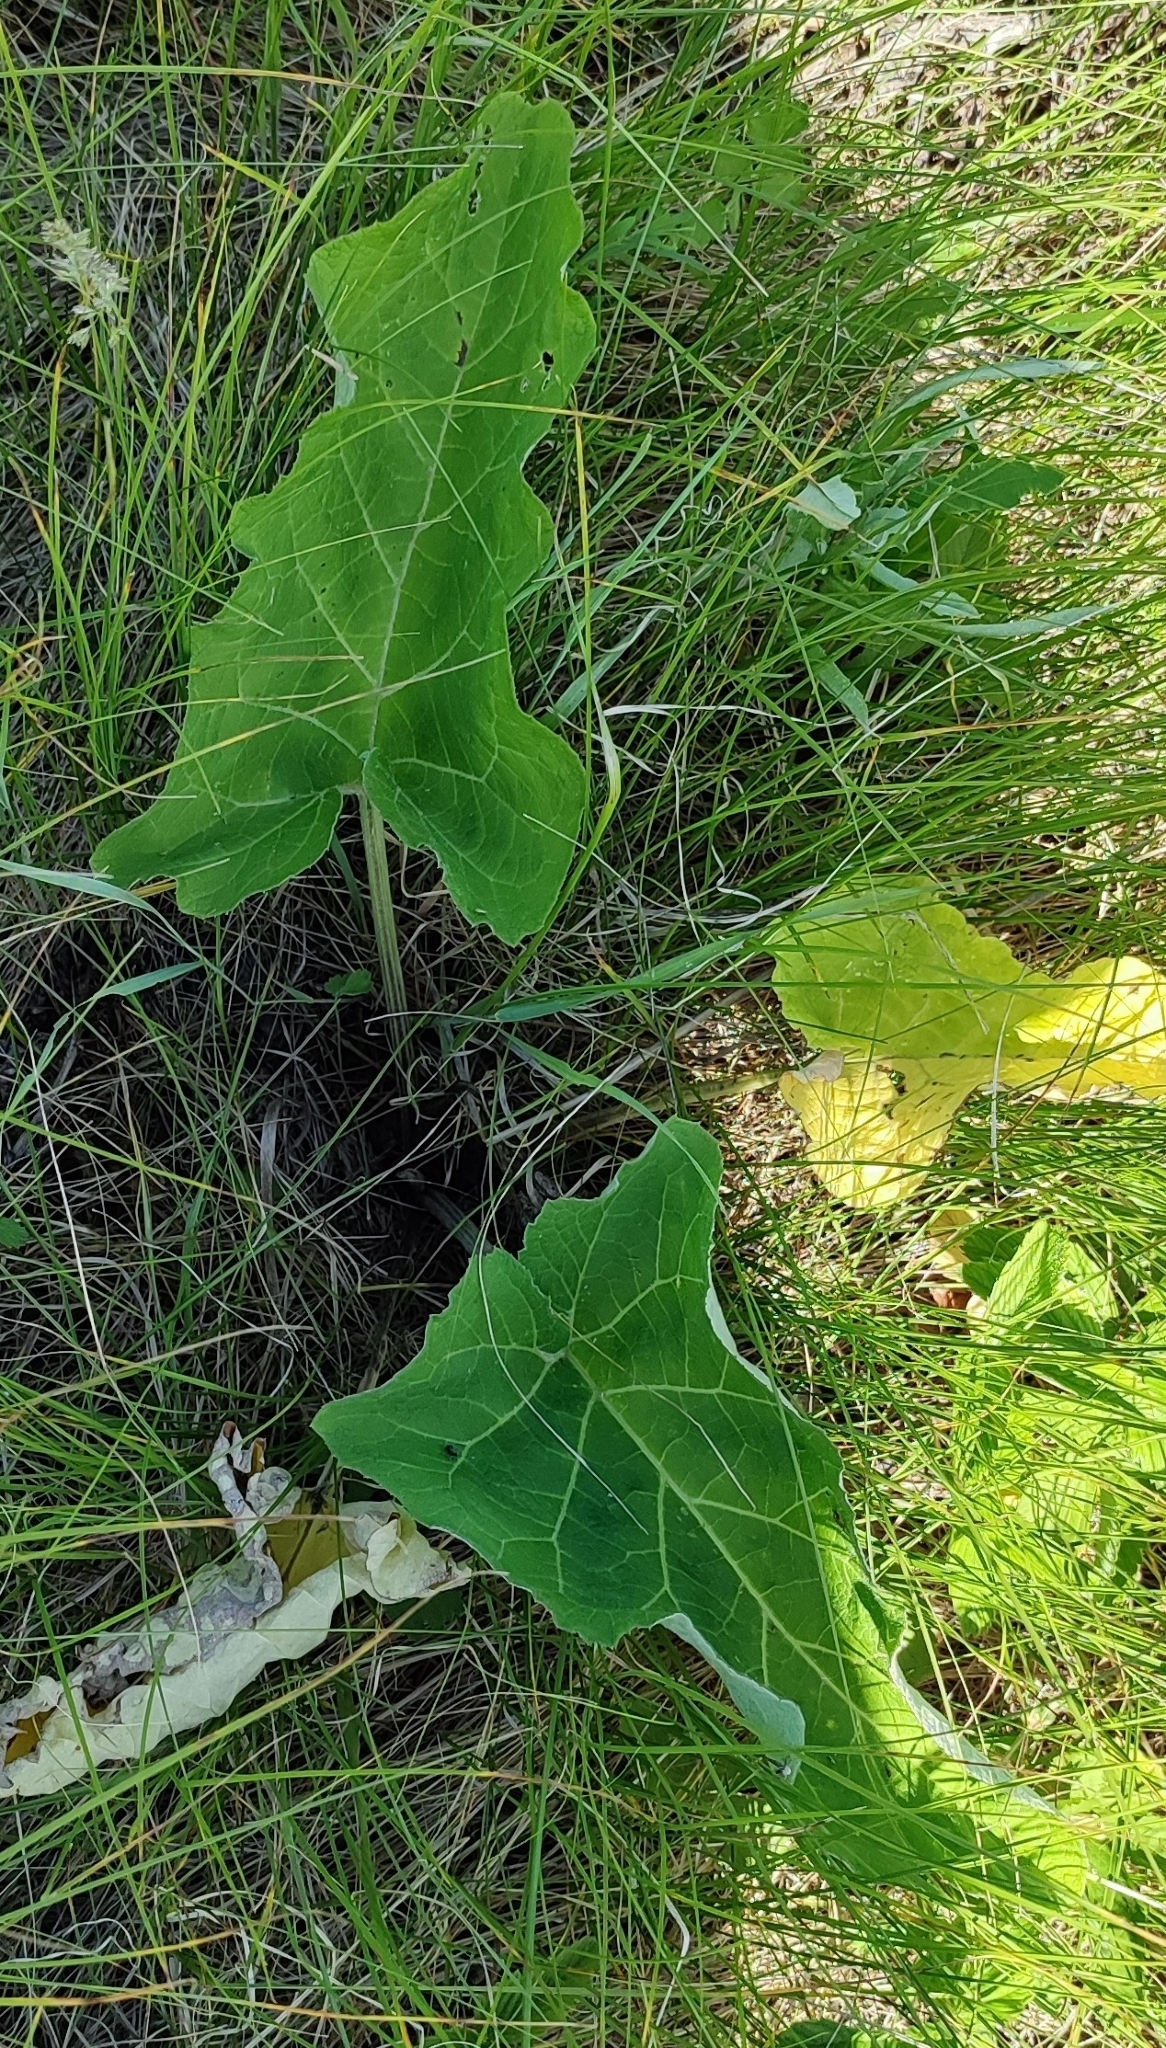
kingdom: Plantae
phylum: Tracheophyta
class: Magnoliopsida
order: Asterales
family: Asteraceae
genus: Arctium
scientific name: Arctium tomentosum
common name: Woolly burdock
